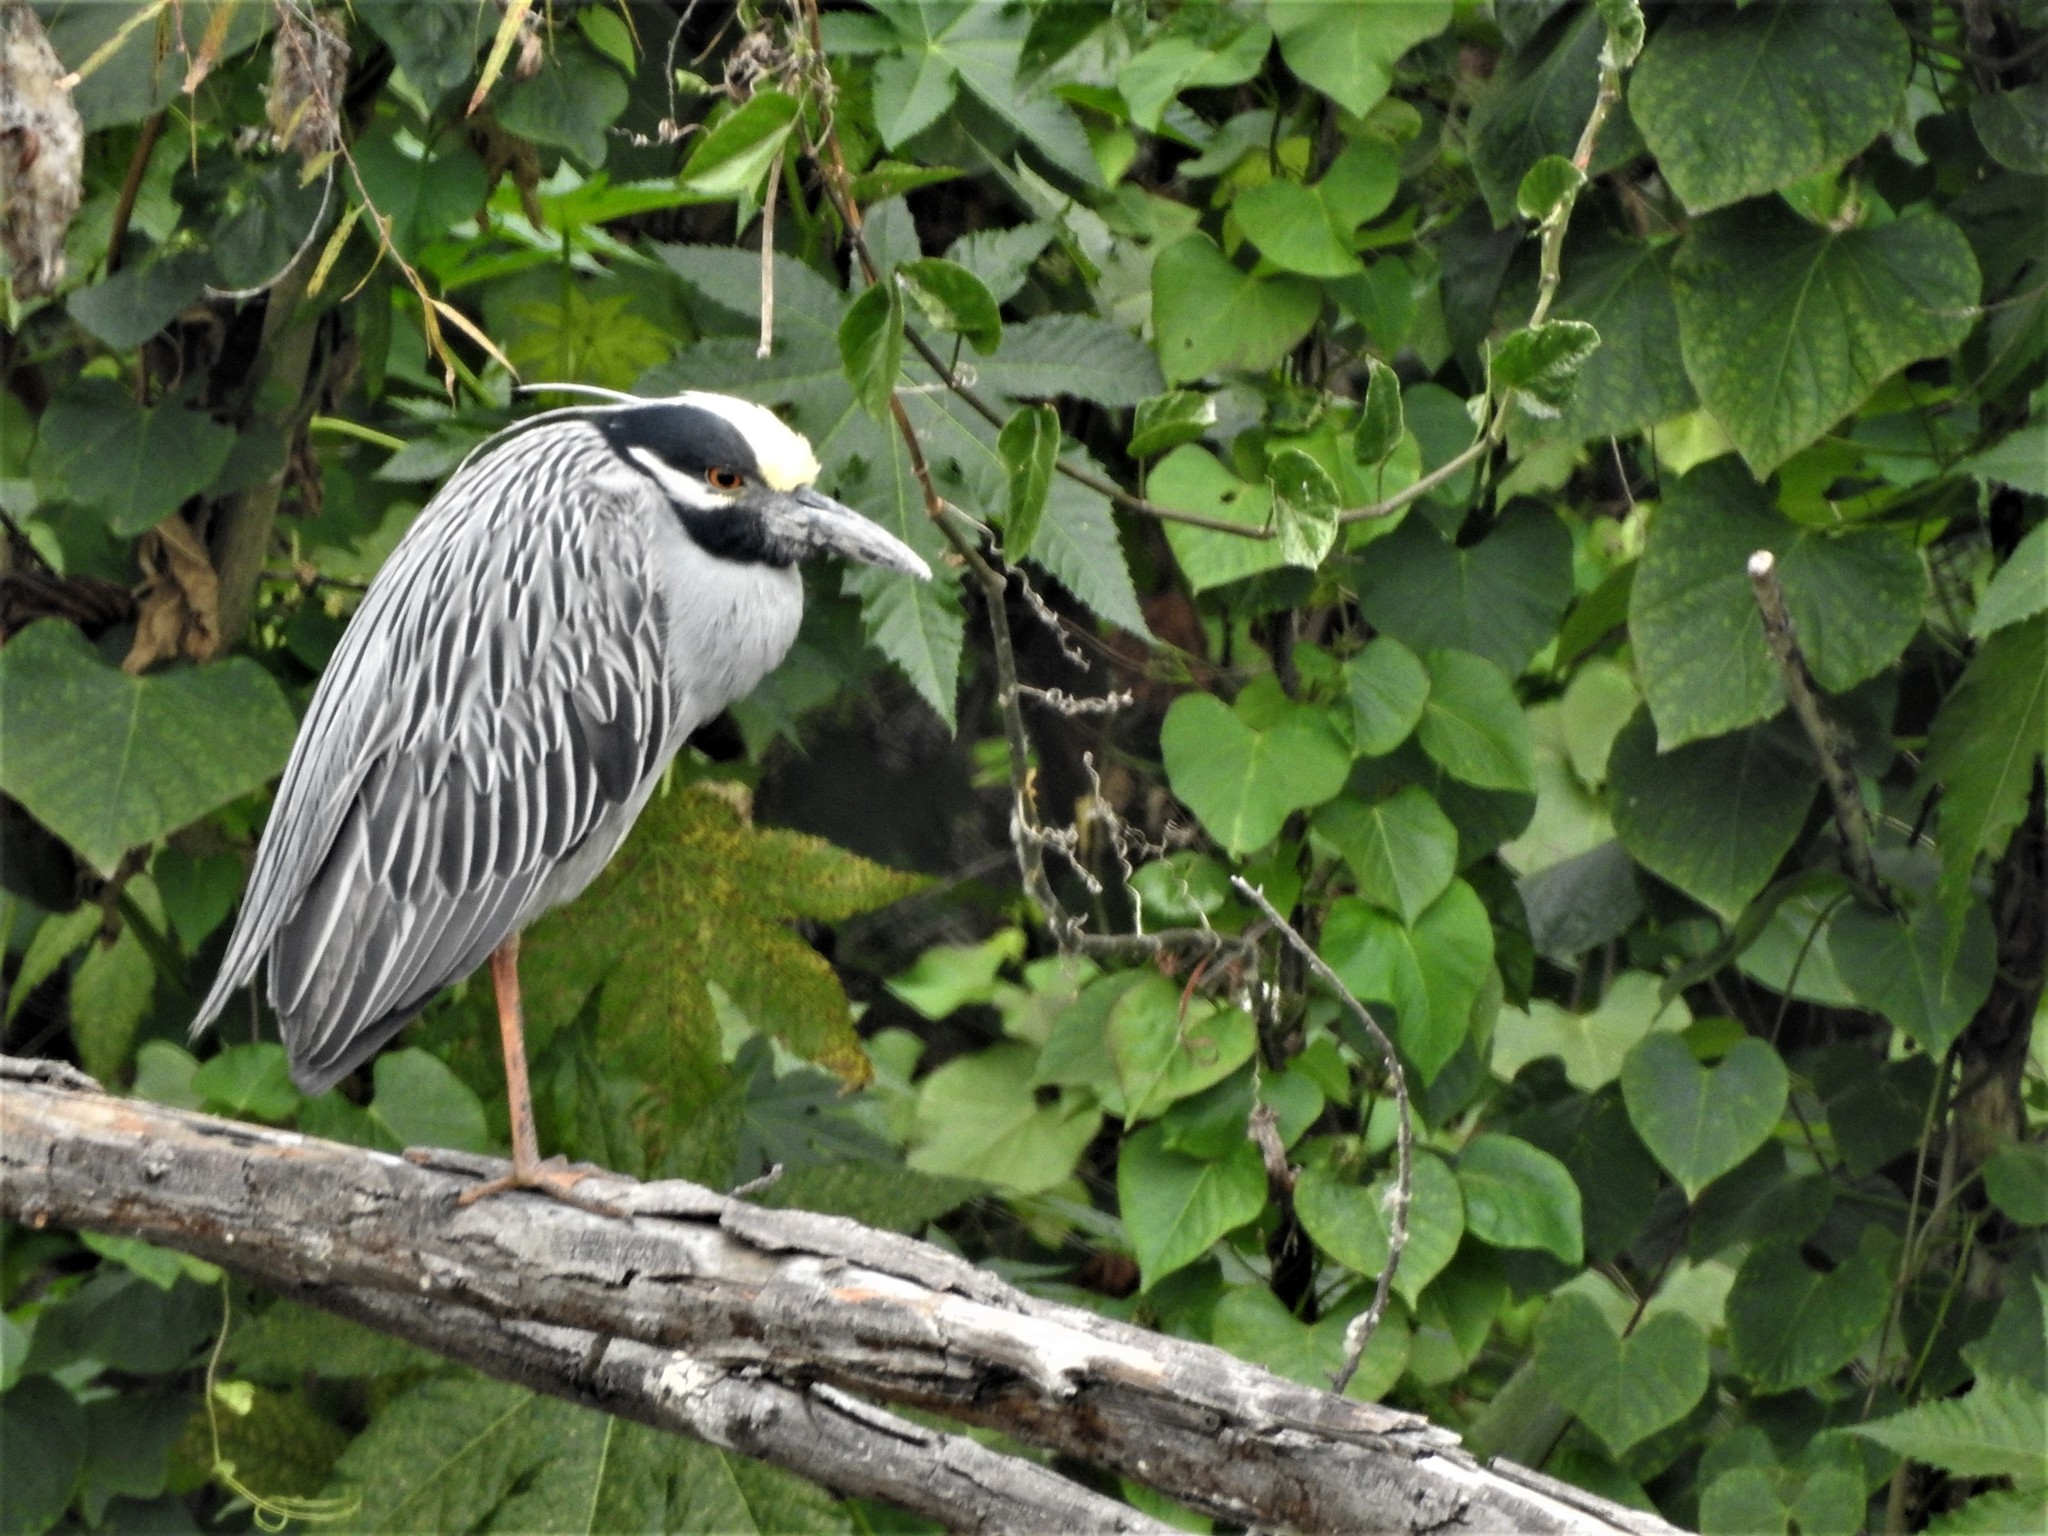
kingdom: Animalia
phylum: Chordata
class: Aves
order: Pelecaniformes
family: Ardeidae
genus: Nyctanassa
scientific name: Nyctanassa violacea
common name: Yellow-crowned night heron
